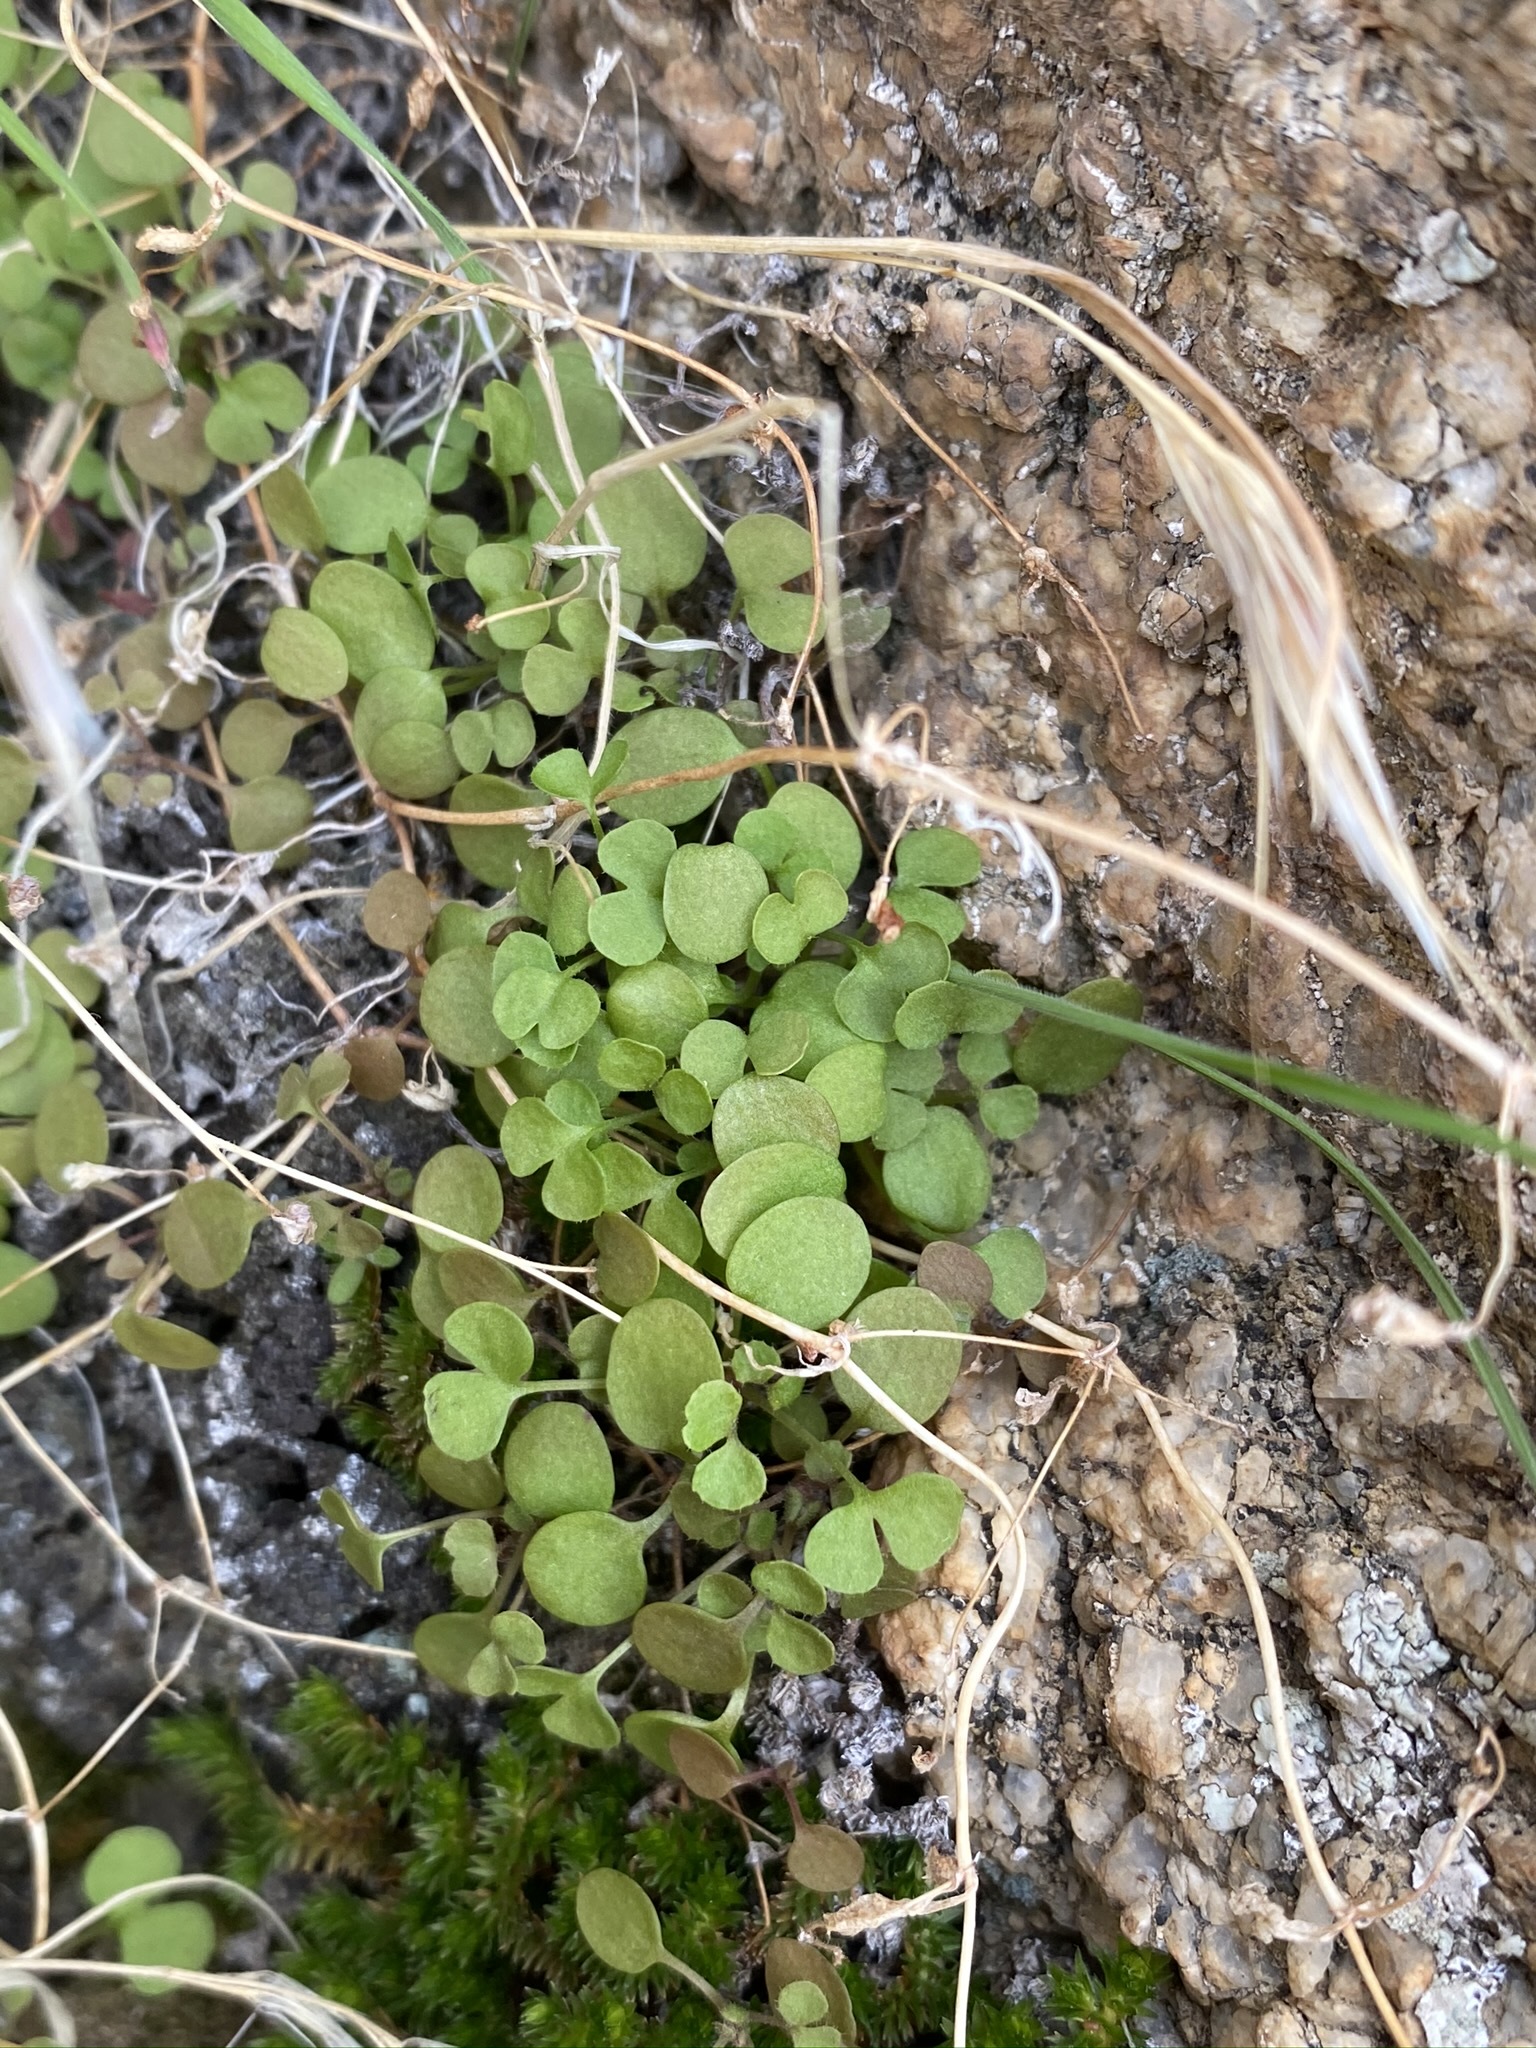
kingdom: Plantae
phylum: Tracheophyta
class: Magnoliopsida
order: Caryophyllales
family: Polygonaceae
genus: Pterostegia
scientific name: Pterostegia drymarioides
